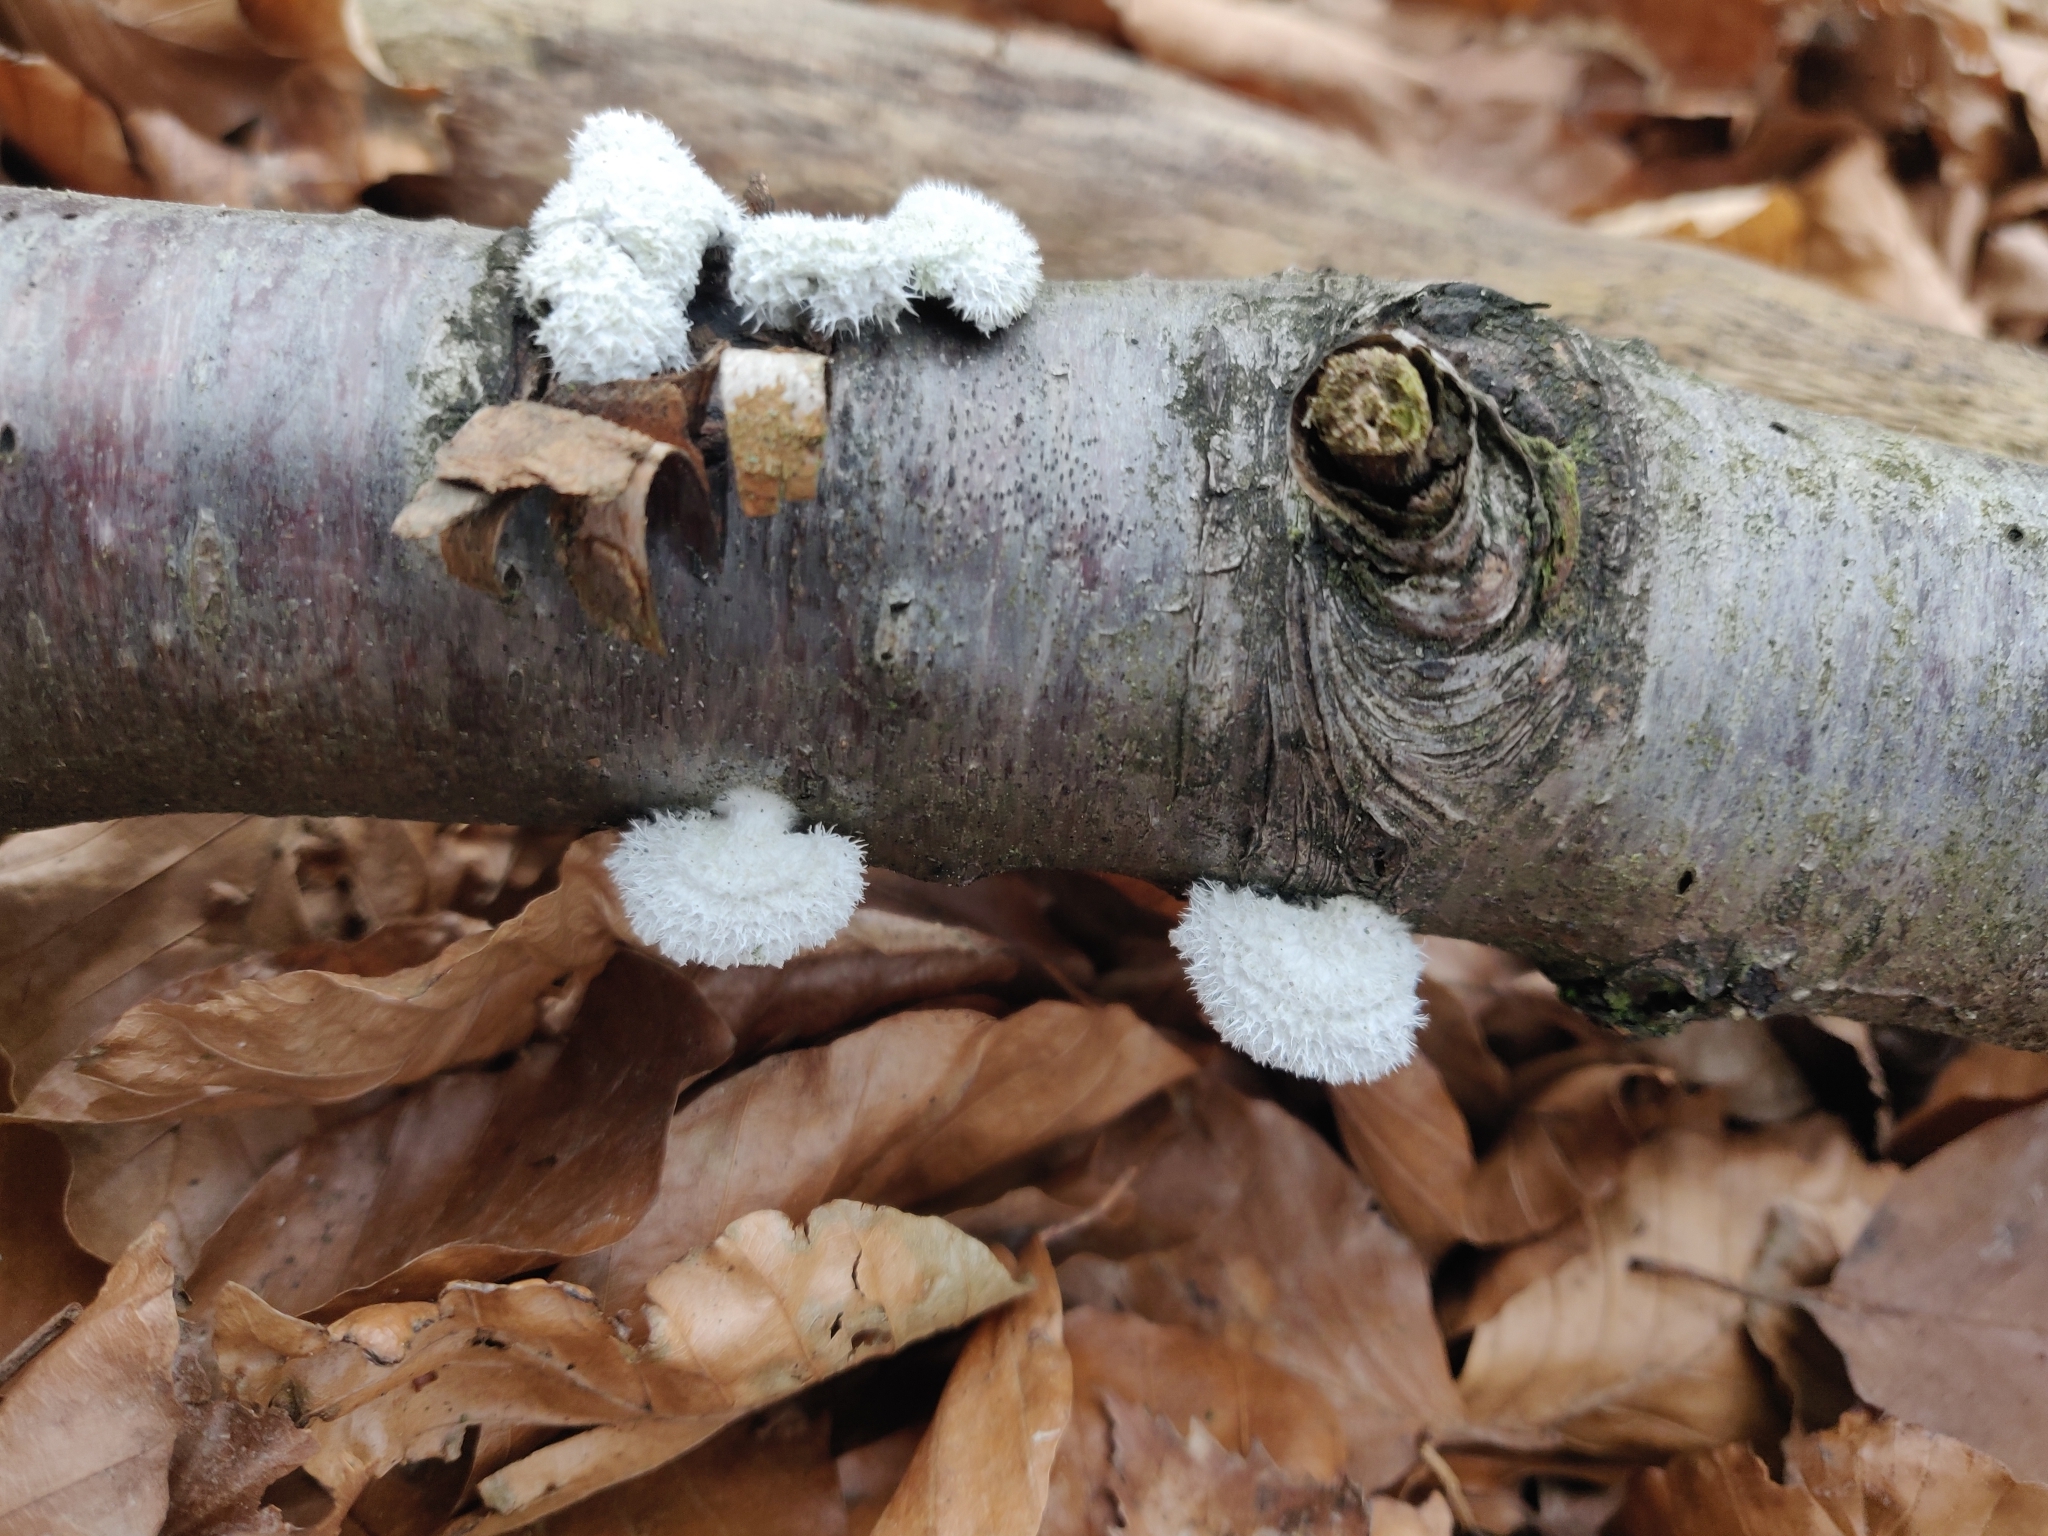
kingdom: Fungi
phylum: Basidiomycota
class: Agaricomycetes
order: Agaricales
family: Schizophyllaceae
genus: Schizophyllum
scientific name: Schizophyllum commune
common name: Common porecrust
